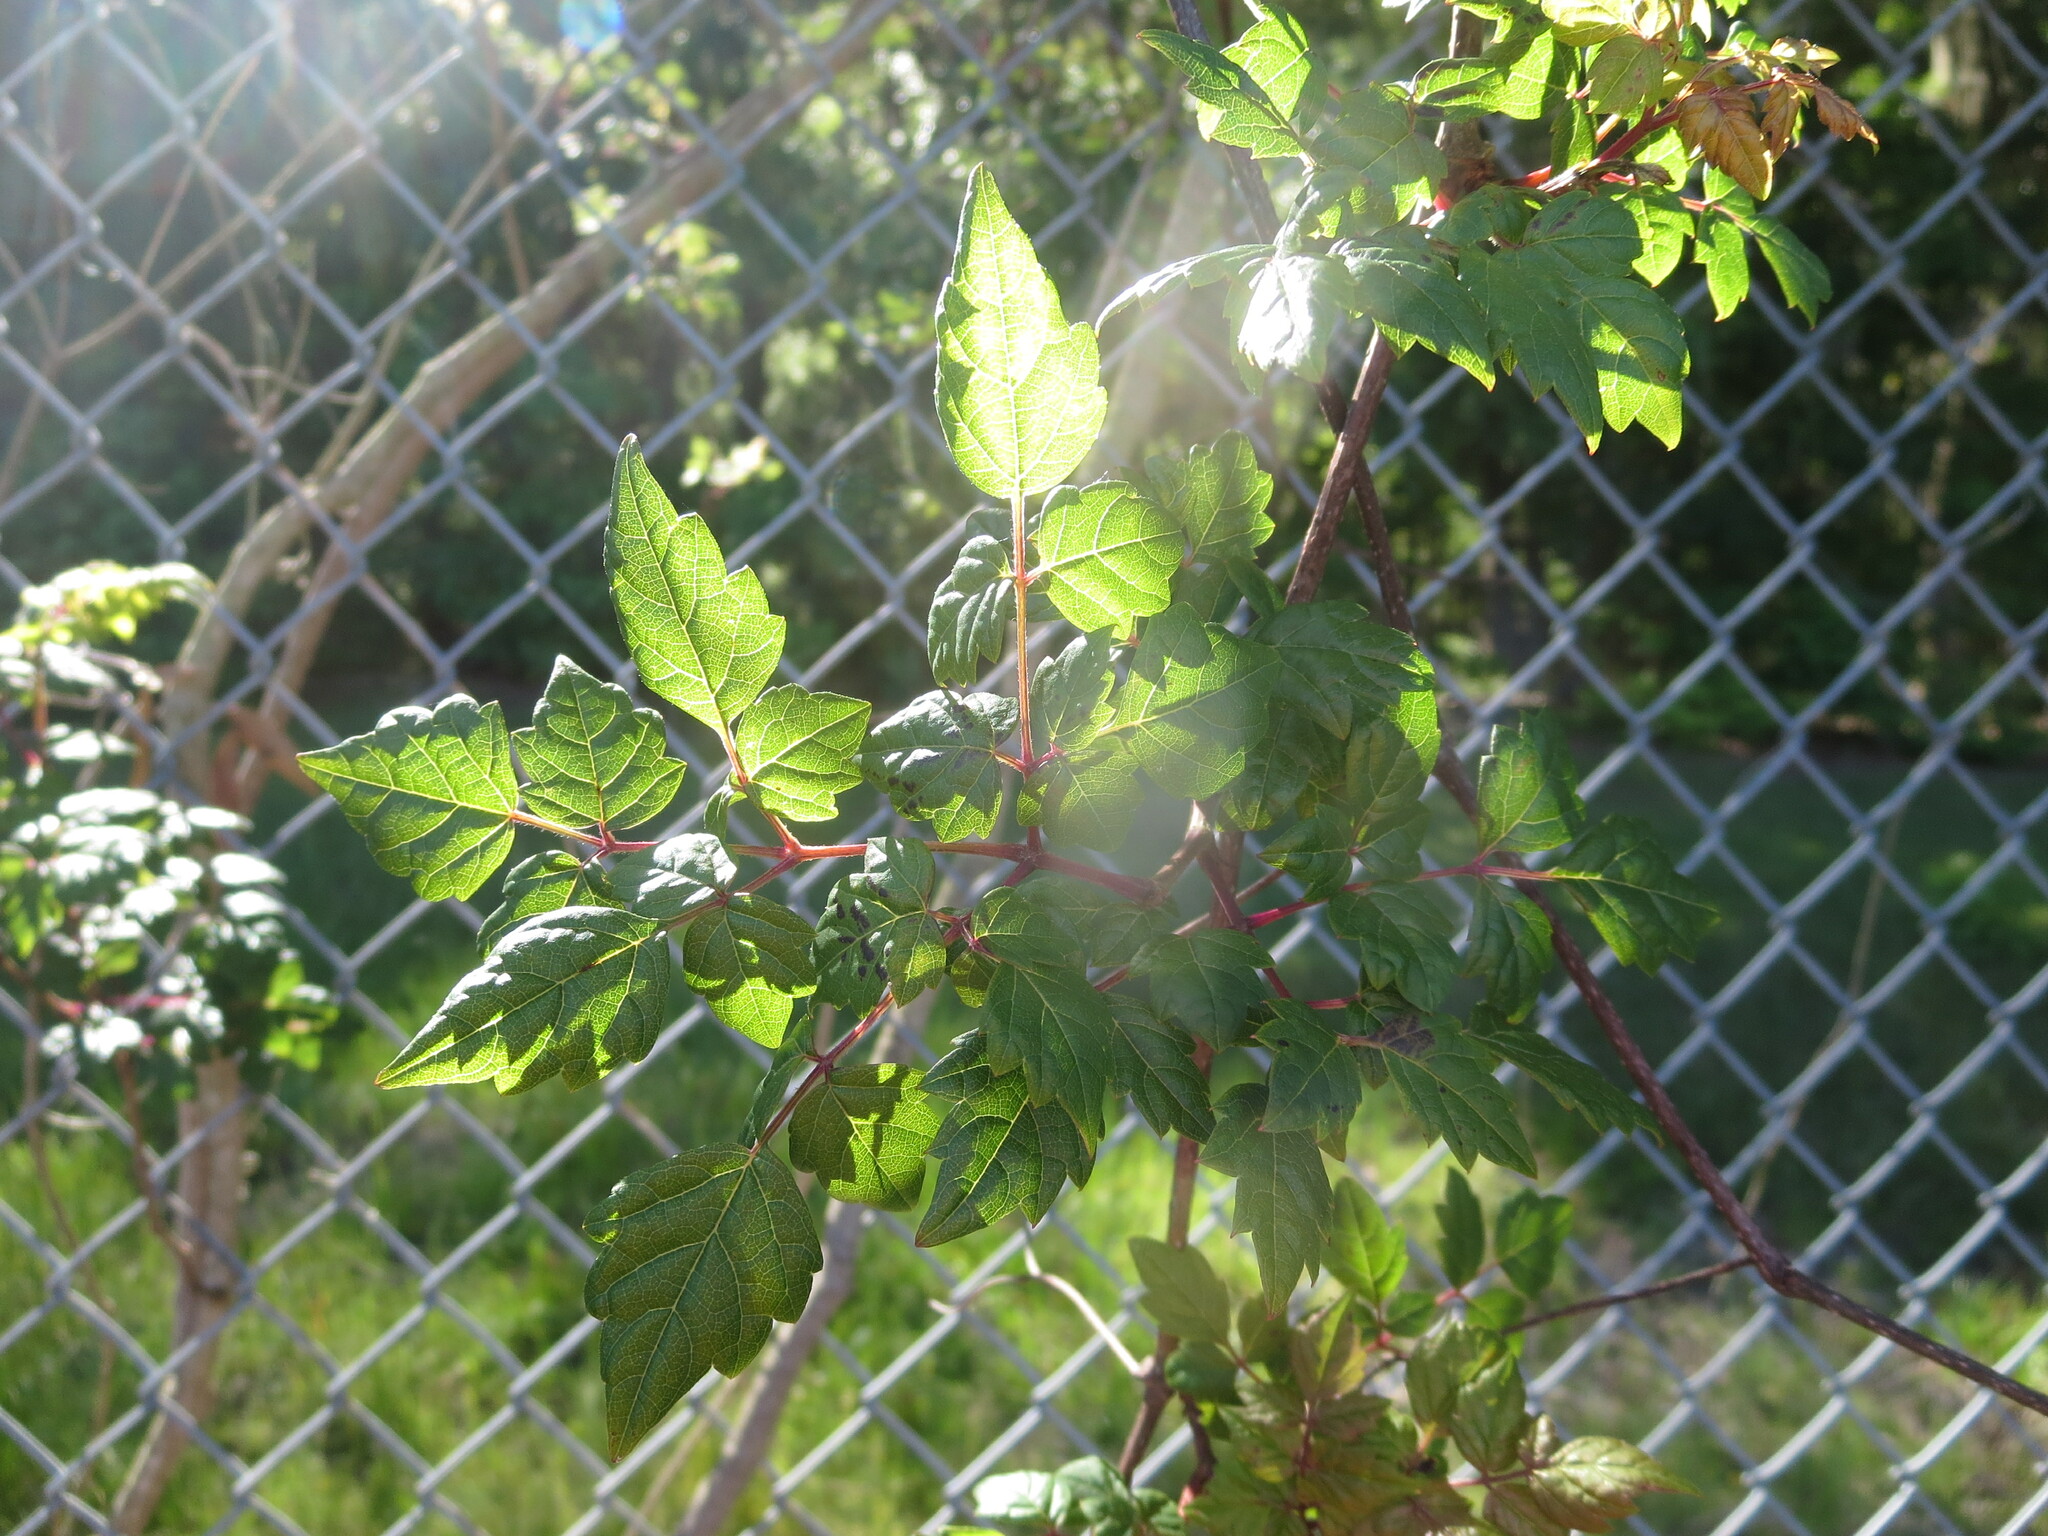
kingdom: Plantae
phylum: Tracheophyta
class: Magnoliopsida
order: Vitales
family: Vitaceae
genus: Nekemias
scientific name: Nekemias arborea
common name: Peppervine
